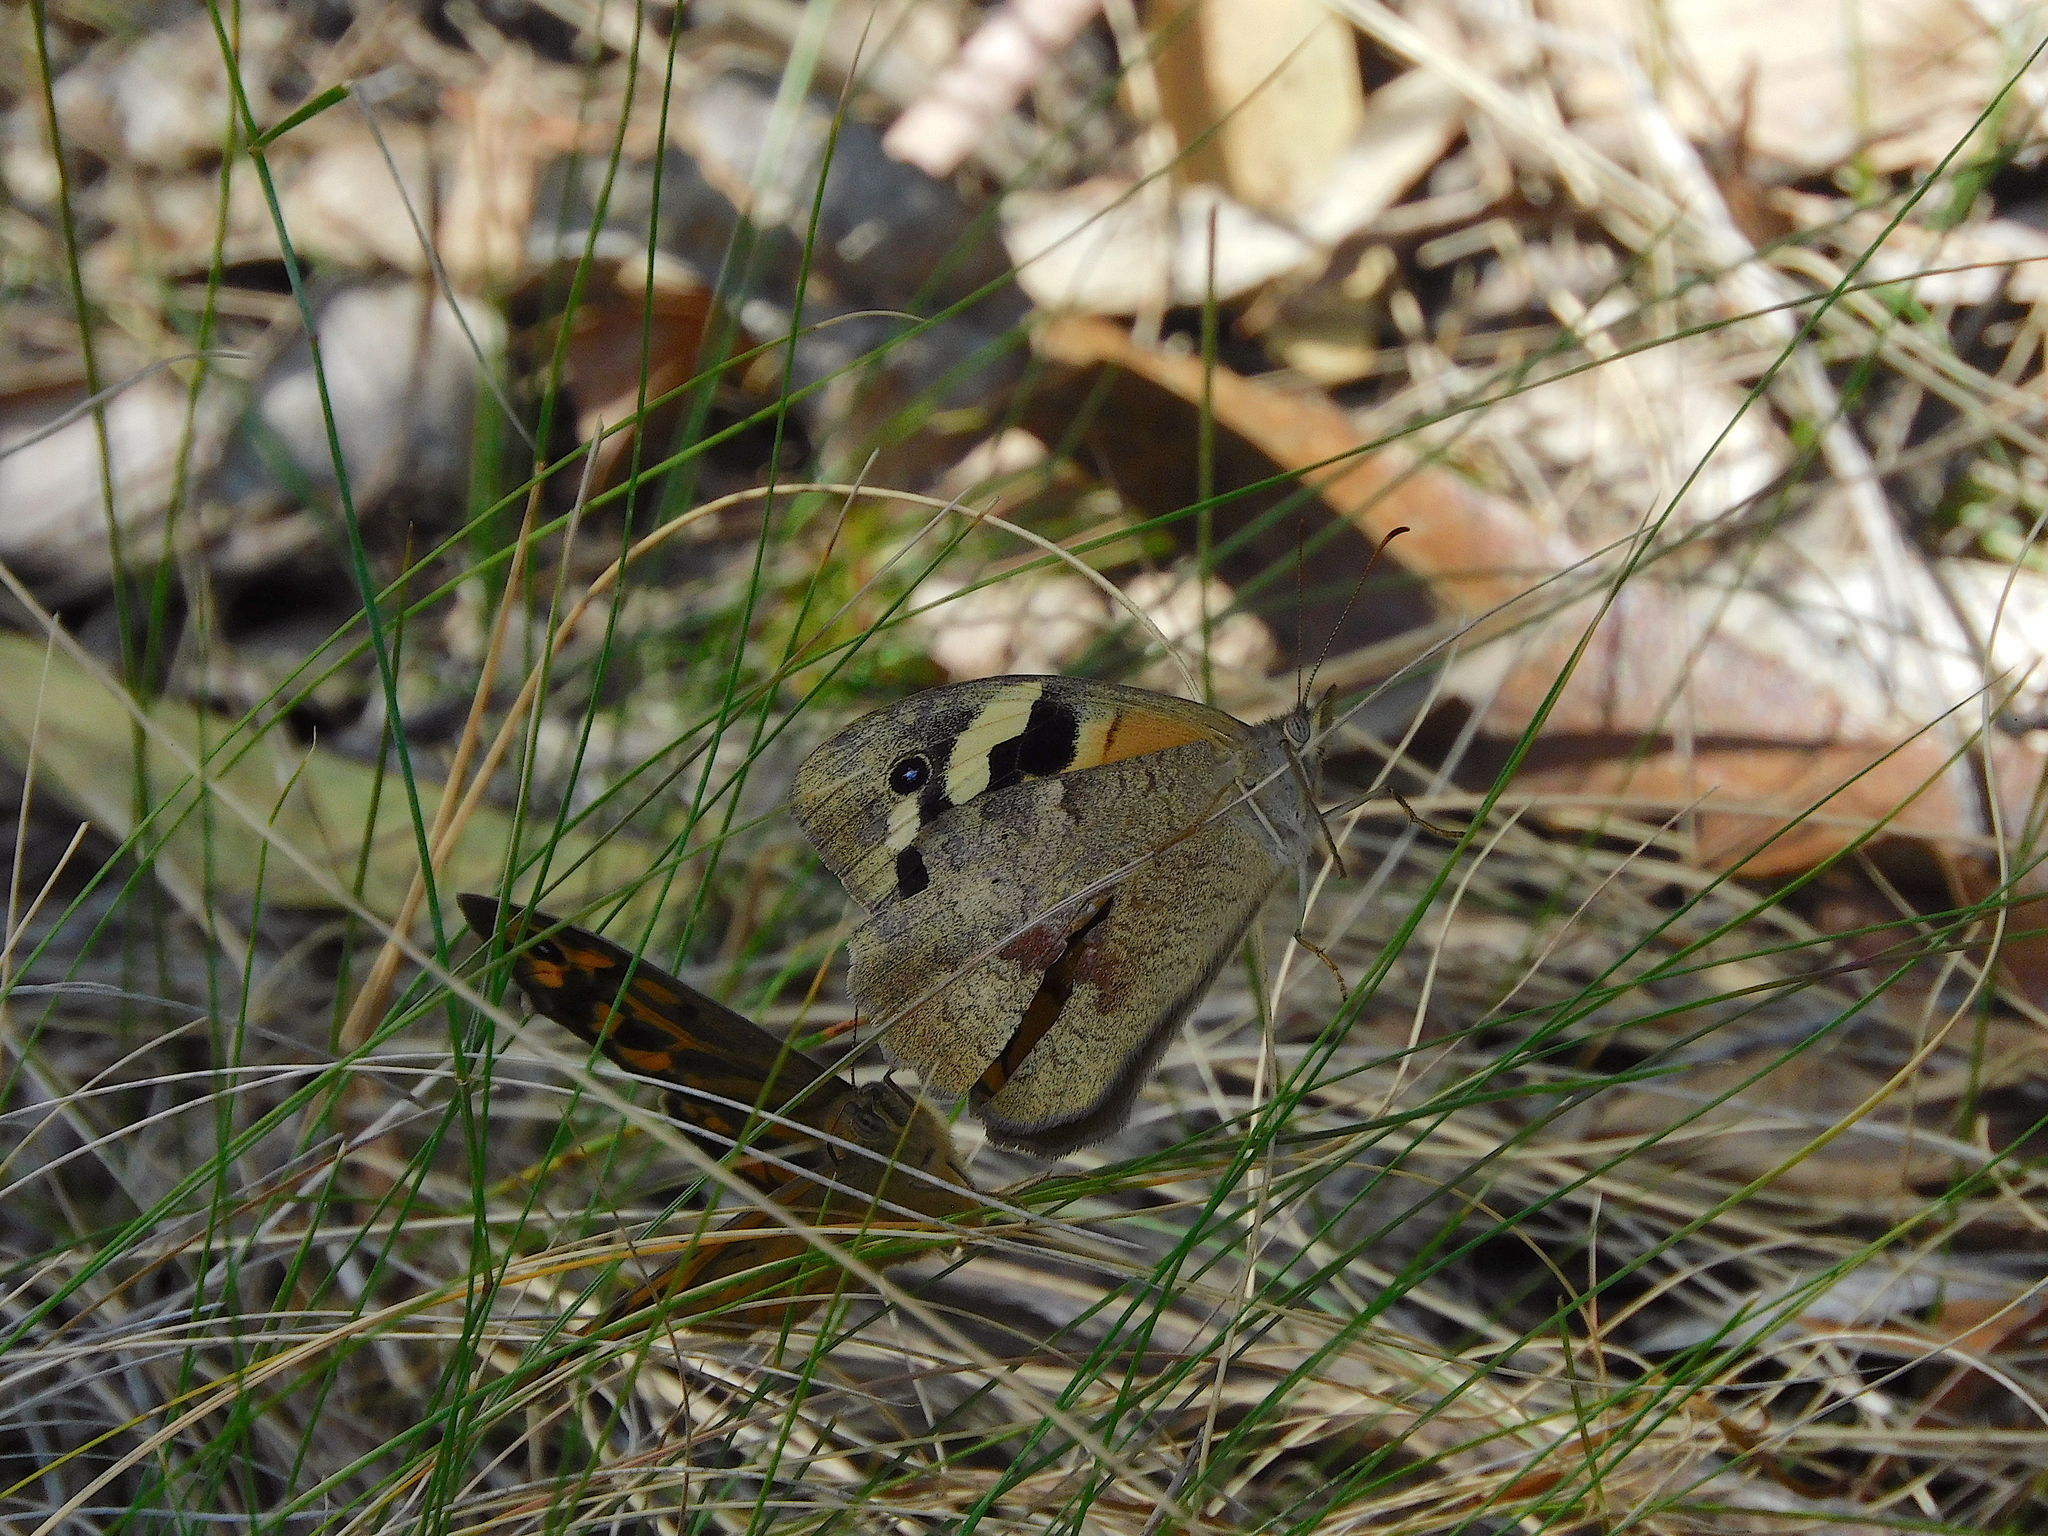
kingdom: Animalia
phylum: Arthropoda
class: Insecta
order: Lepidoptera
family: Nymphalidae
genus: Heteronympha
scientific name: Heteronympha merope
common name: Common brown
